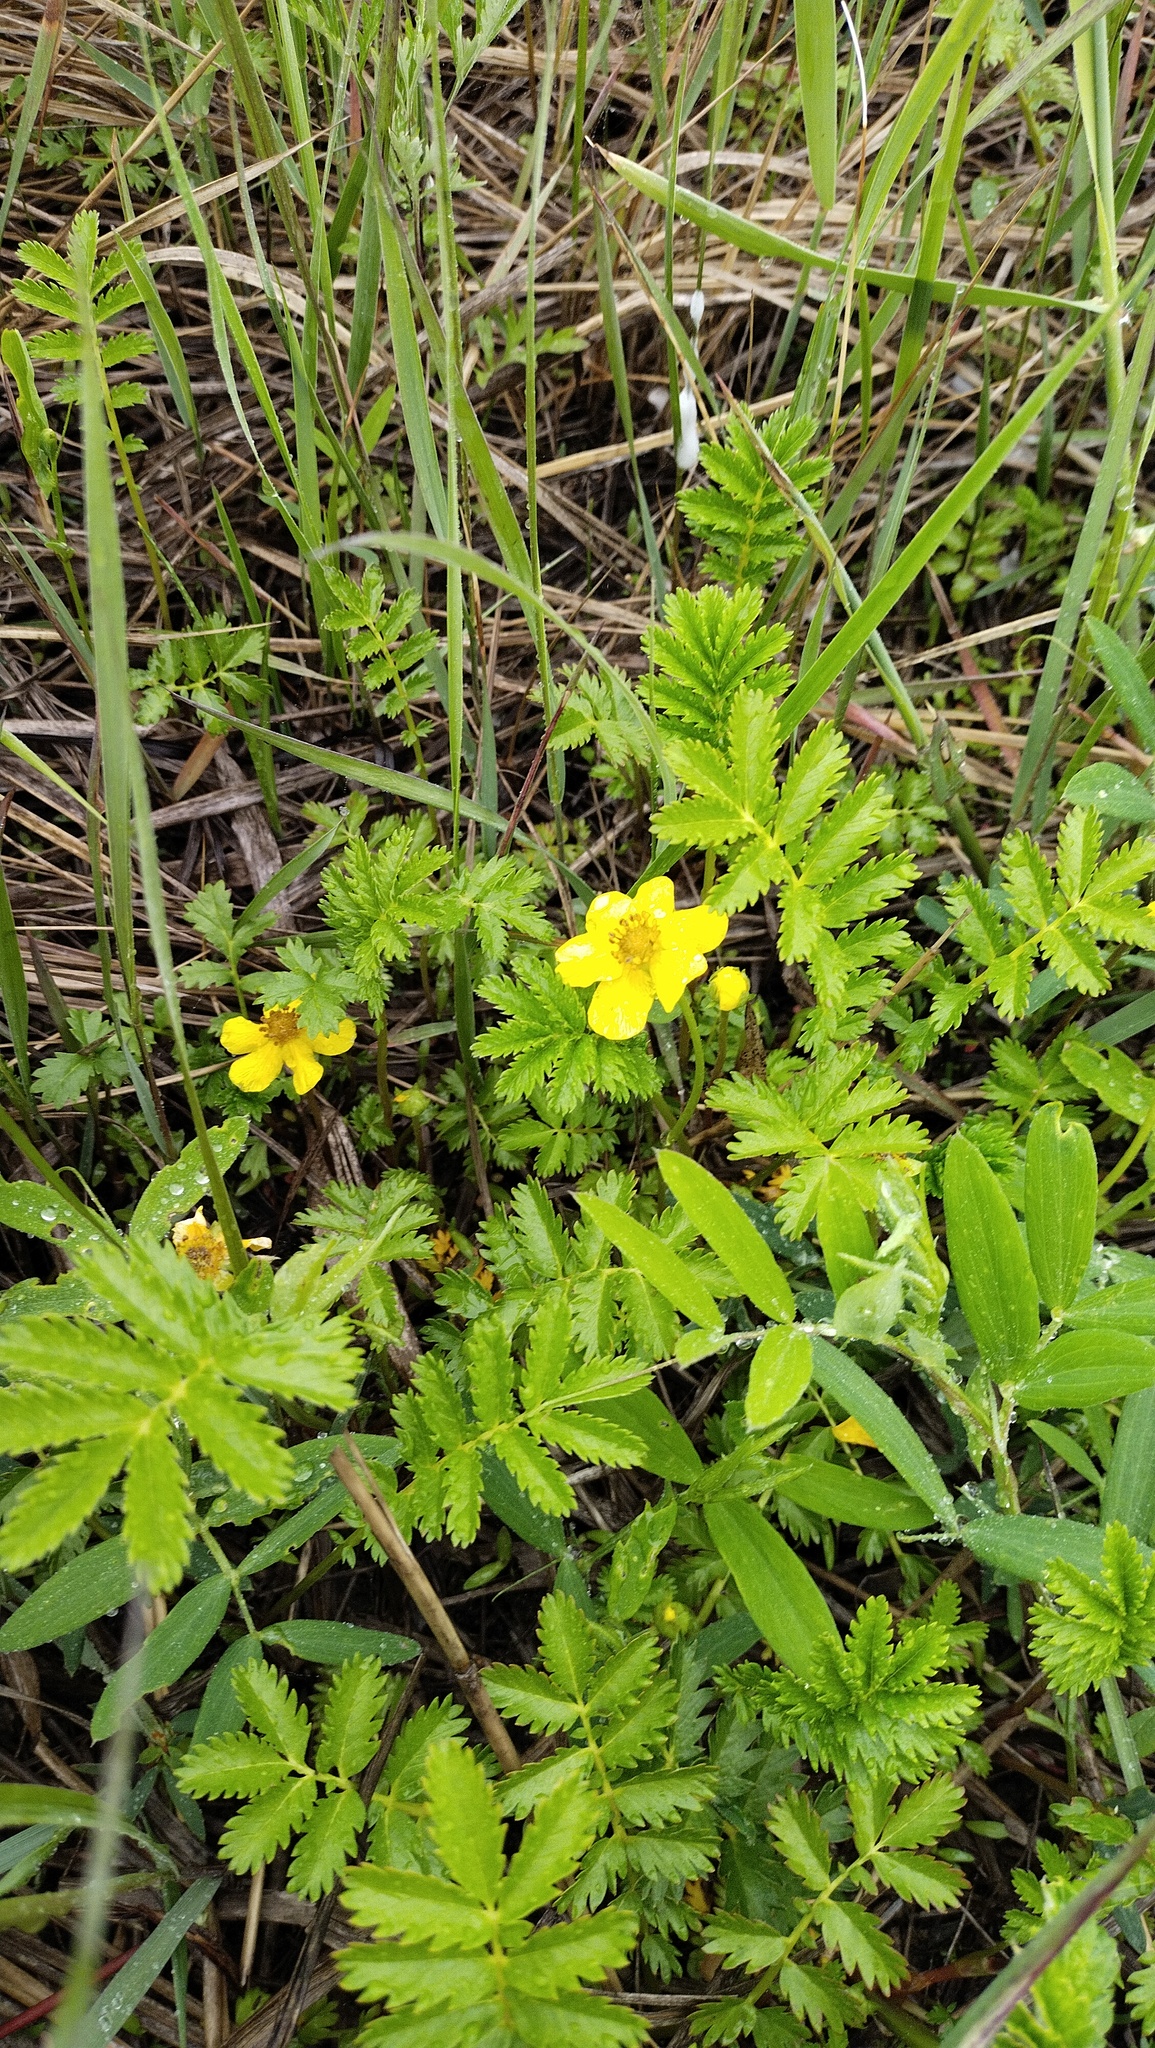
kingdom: Plantae
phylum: Tracheophyta
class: Magnoliopsida
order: Rosales
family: Rosaceae
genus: Argentina
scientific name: Argentina anserina
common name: Common silverweed
